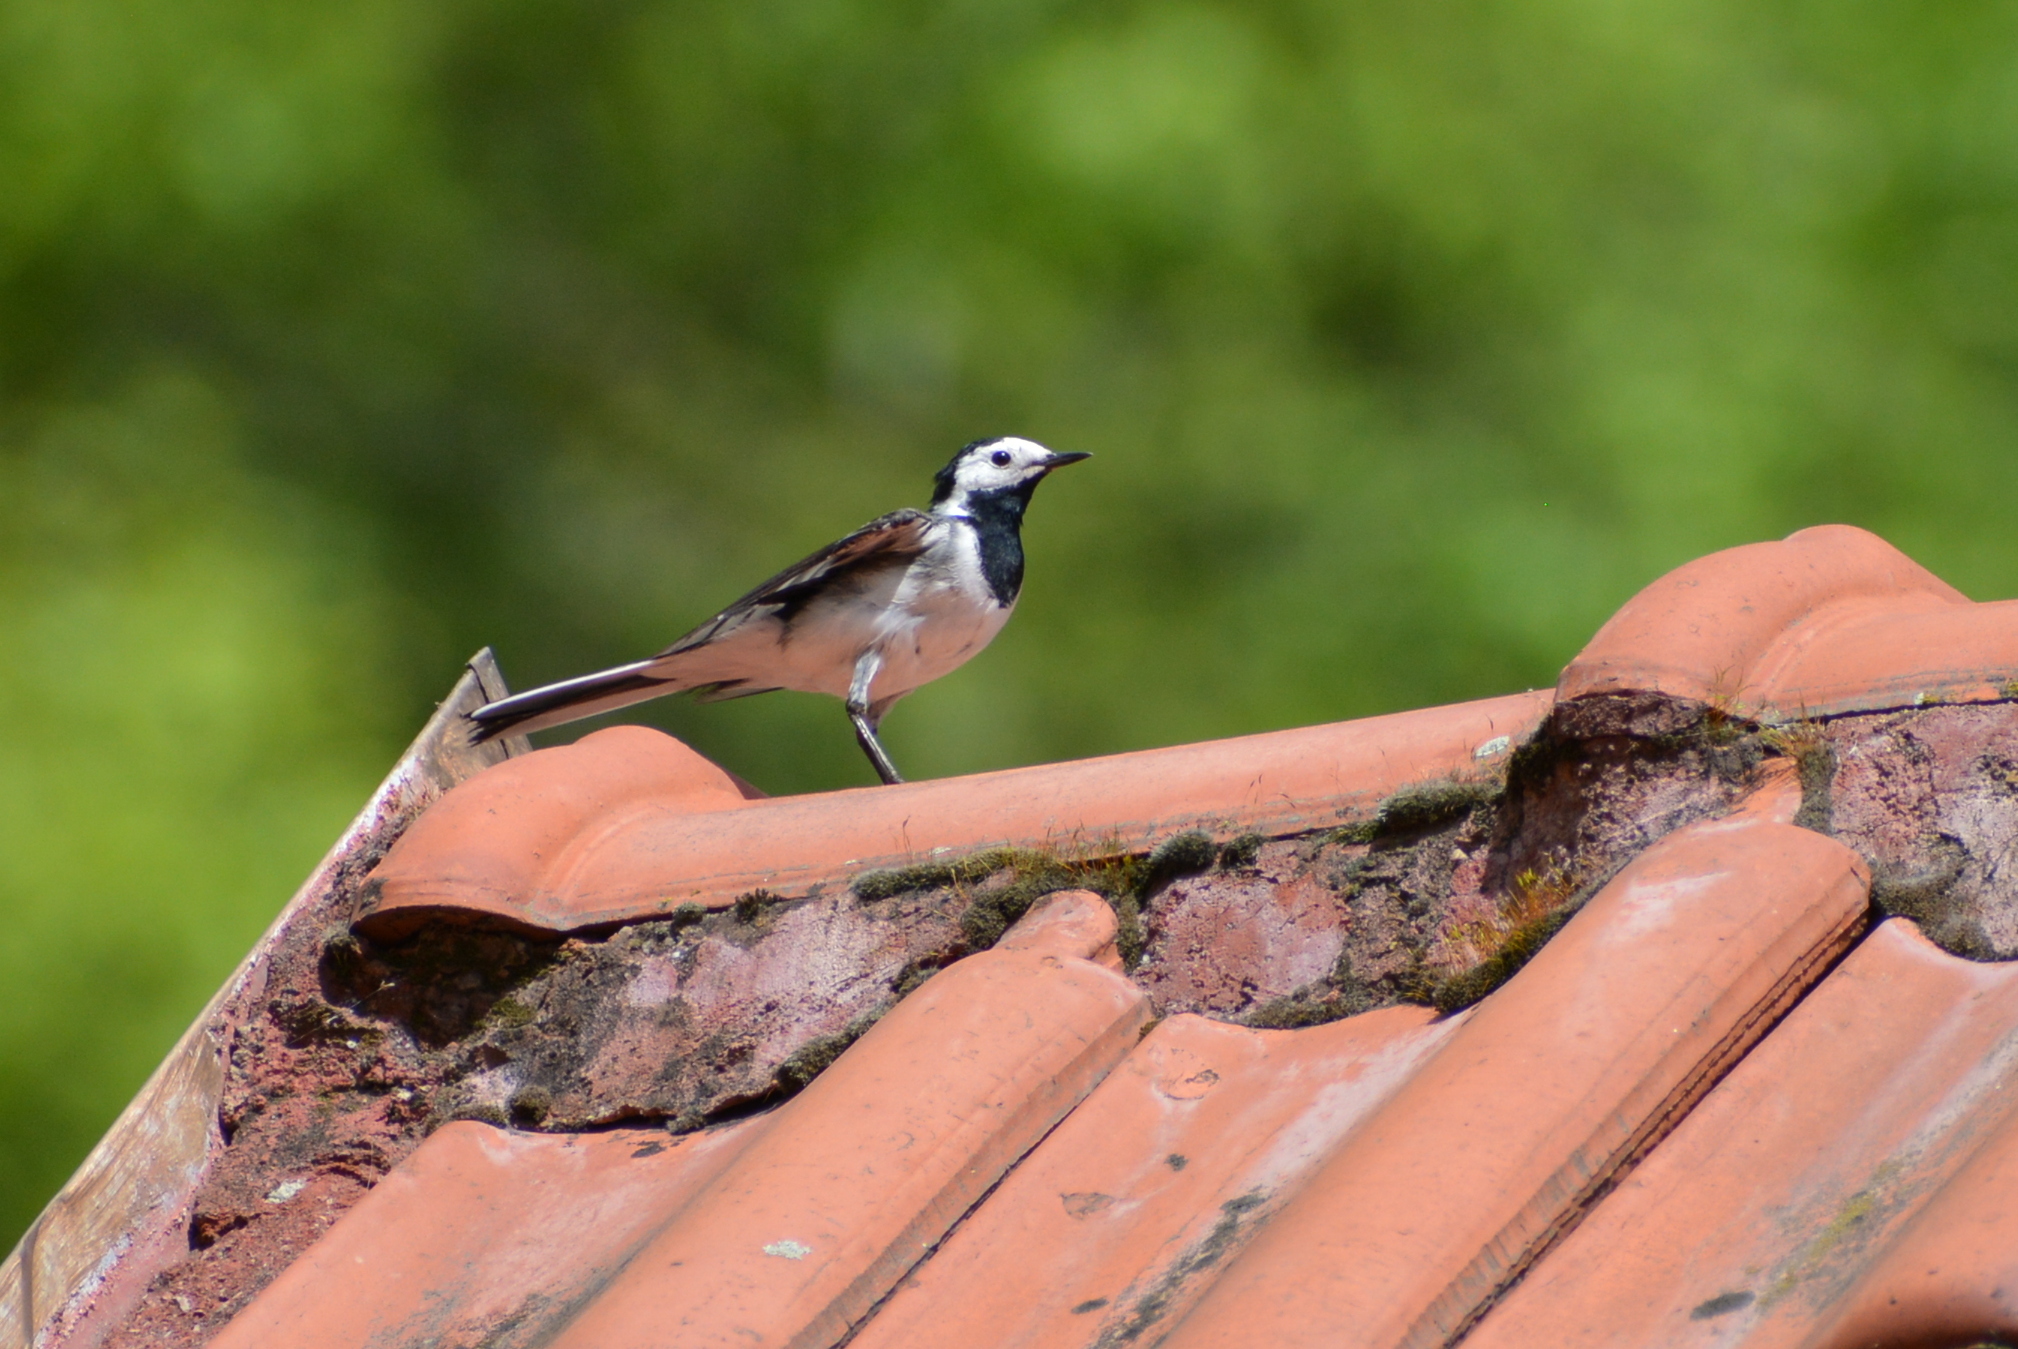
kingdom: Animalia
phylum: Chordata
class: Aves
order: Passeriformes
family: Motacillidae
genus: Motacilla
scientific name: Motacilla alba
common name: White wagtail
